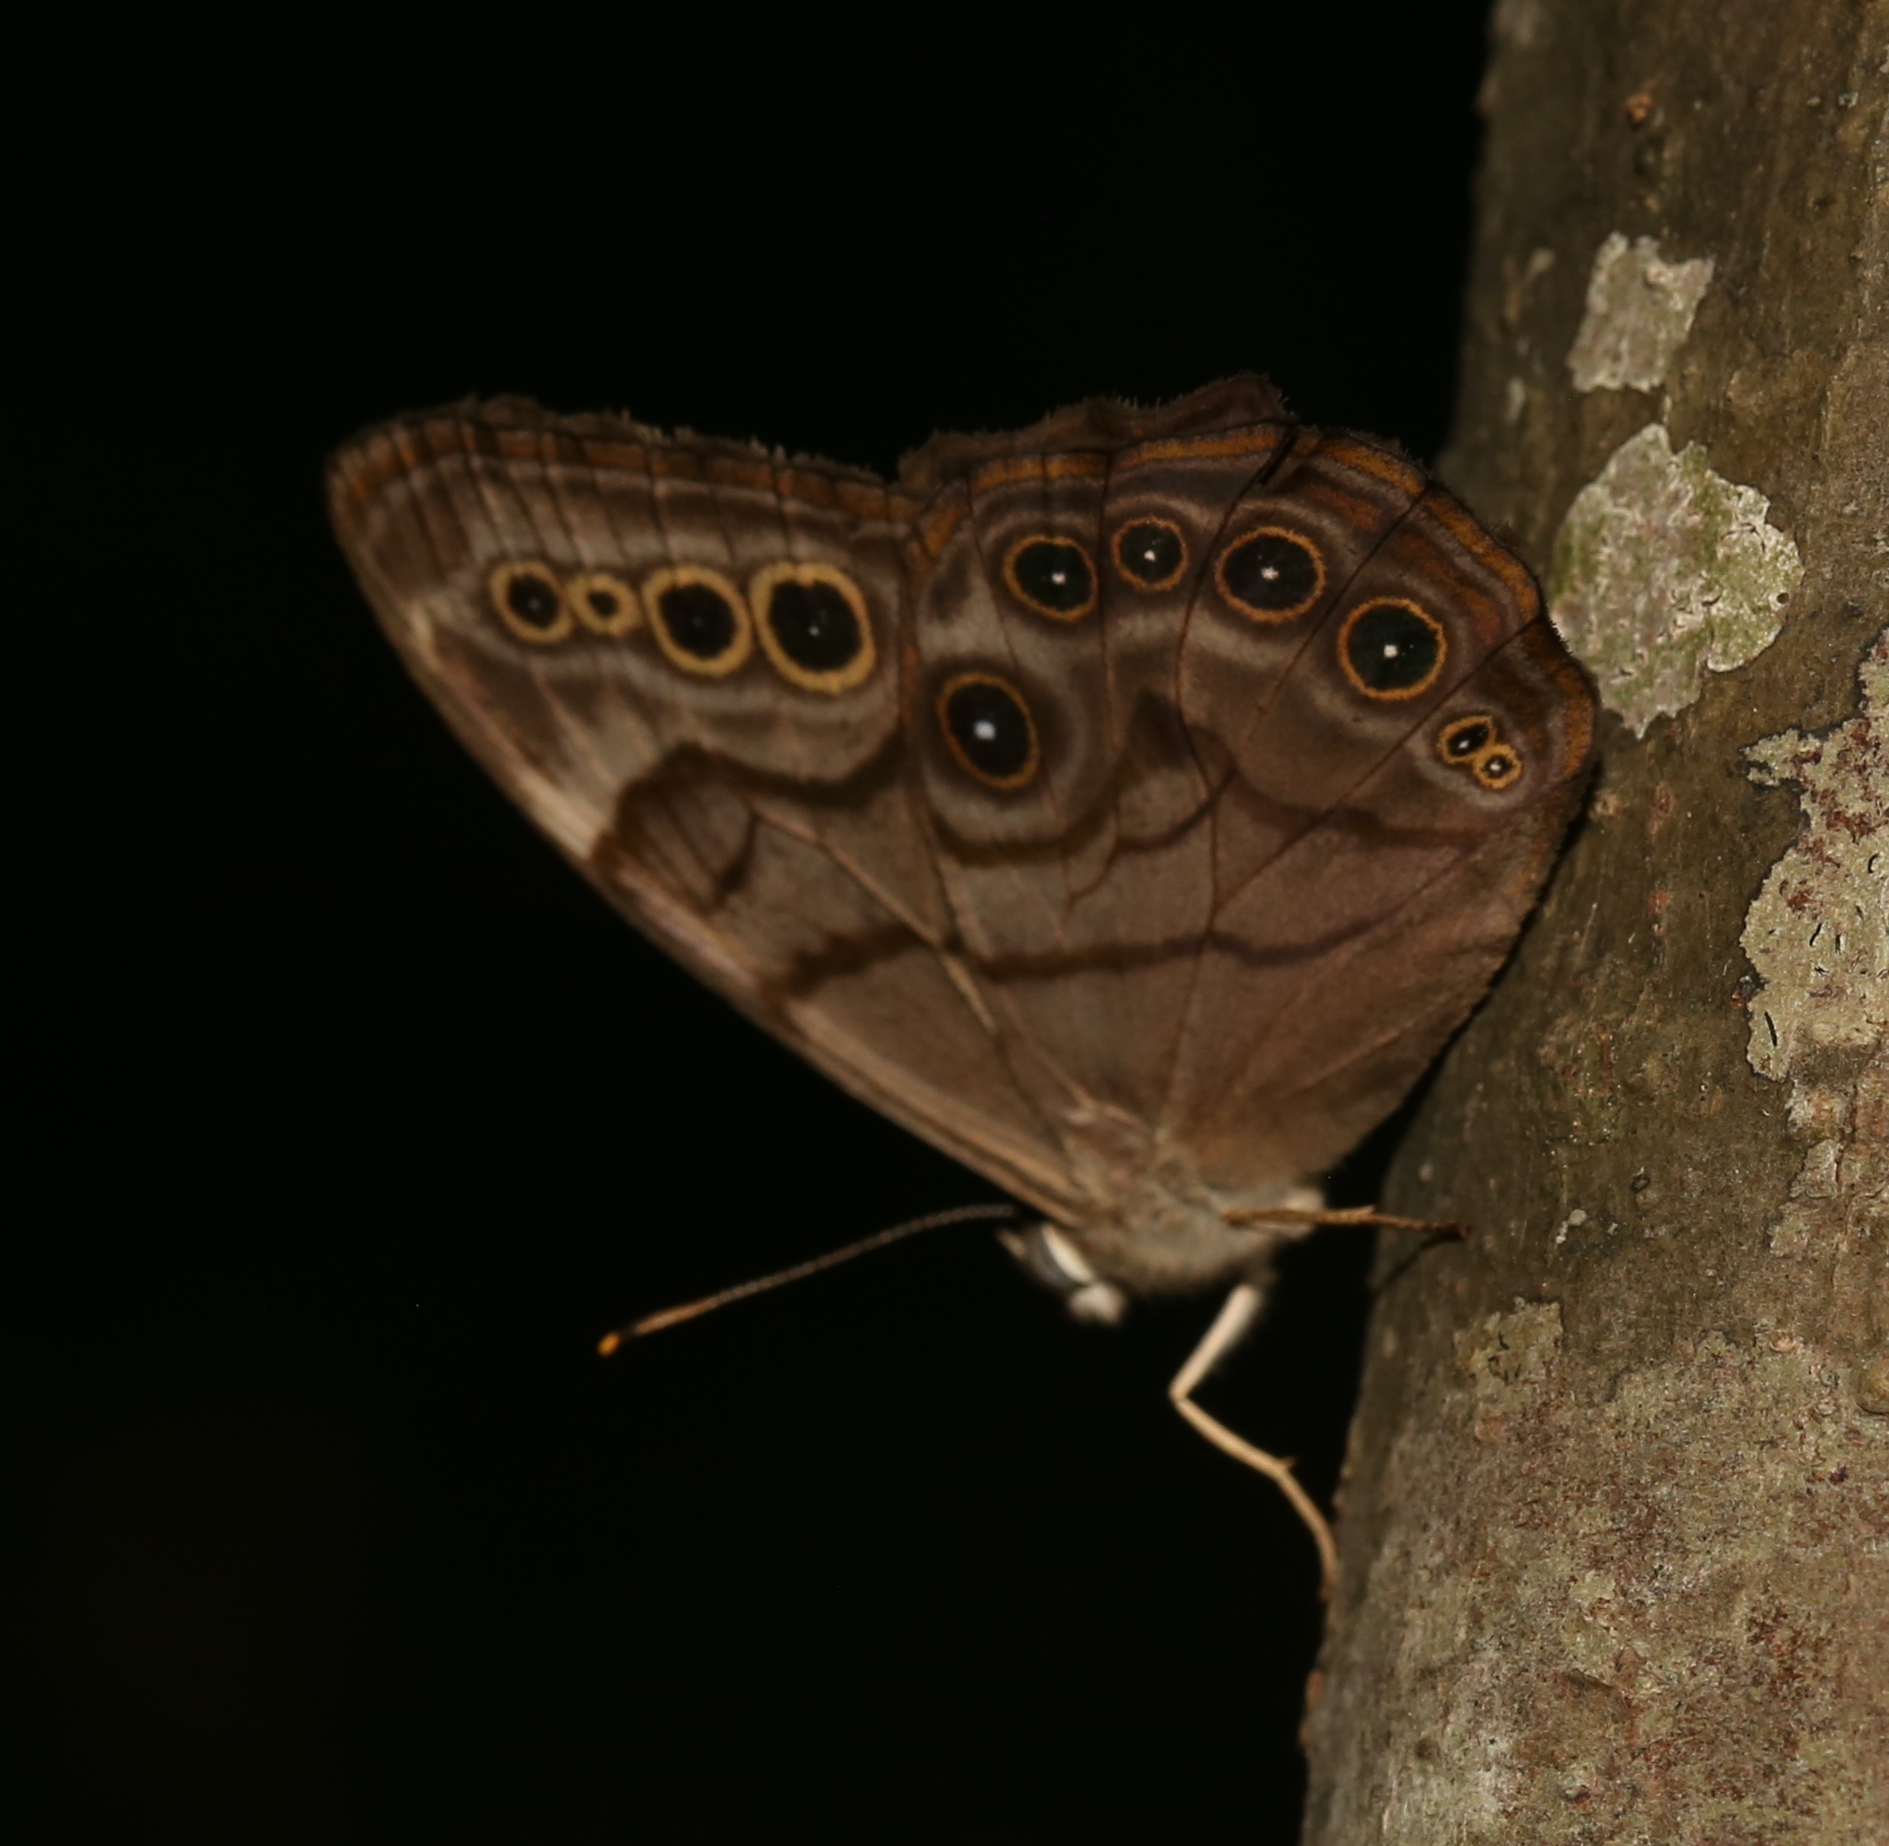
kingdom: Animalia
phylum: Arthropoda
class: Insecta
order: Lepidoptera
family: Nymphalidae
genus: Lethe
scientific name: Lethe anthedon
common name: Northern pearly-eye
